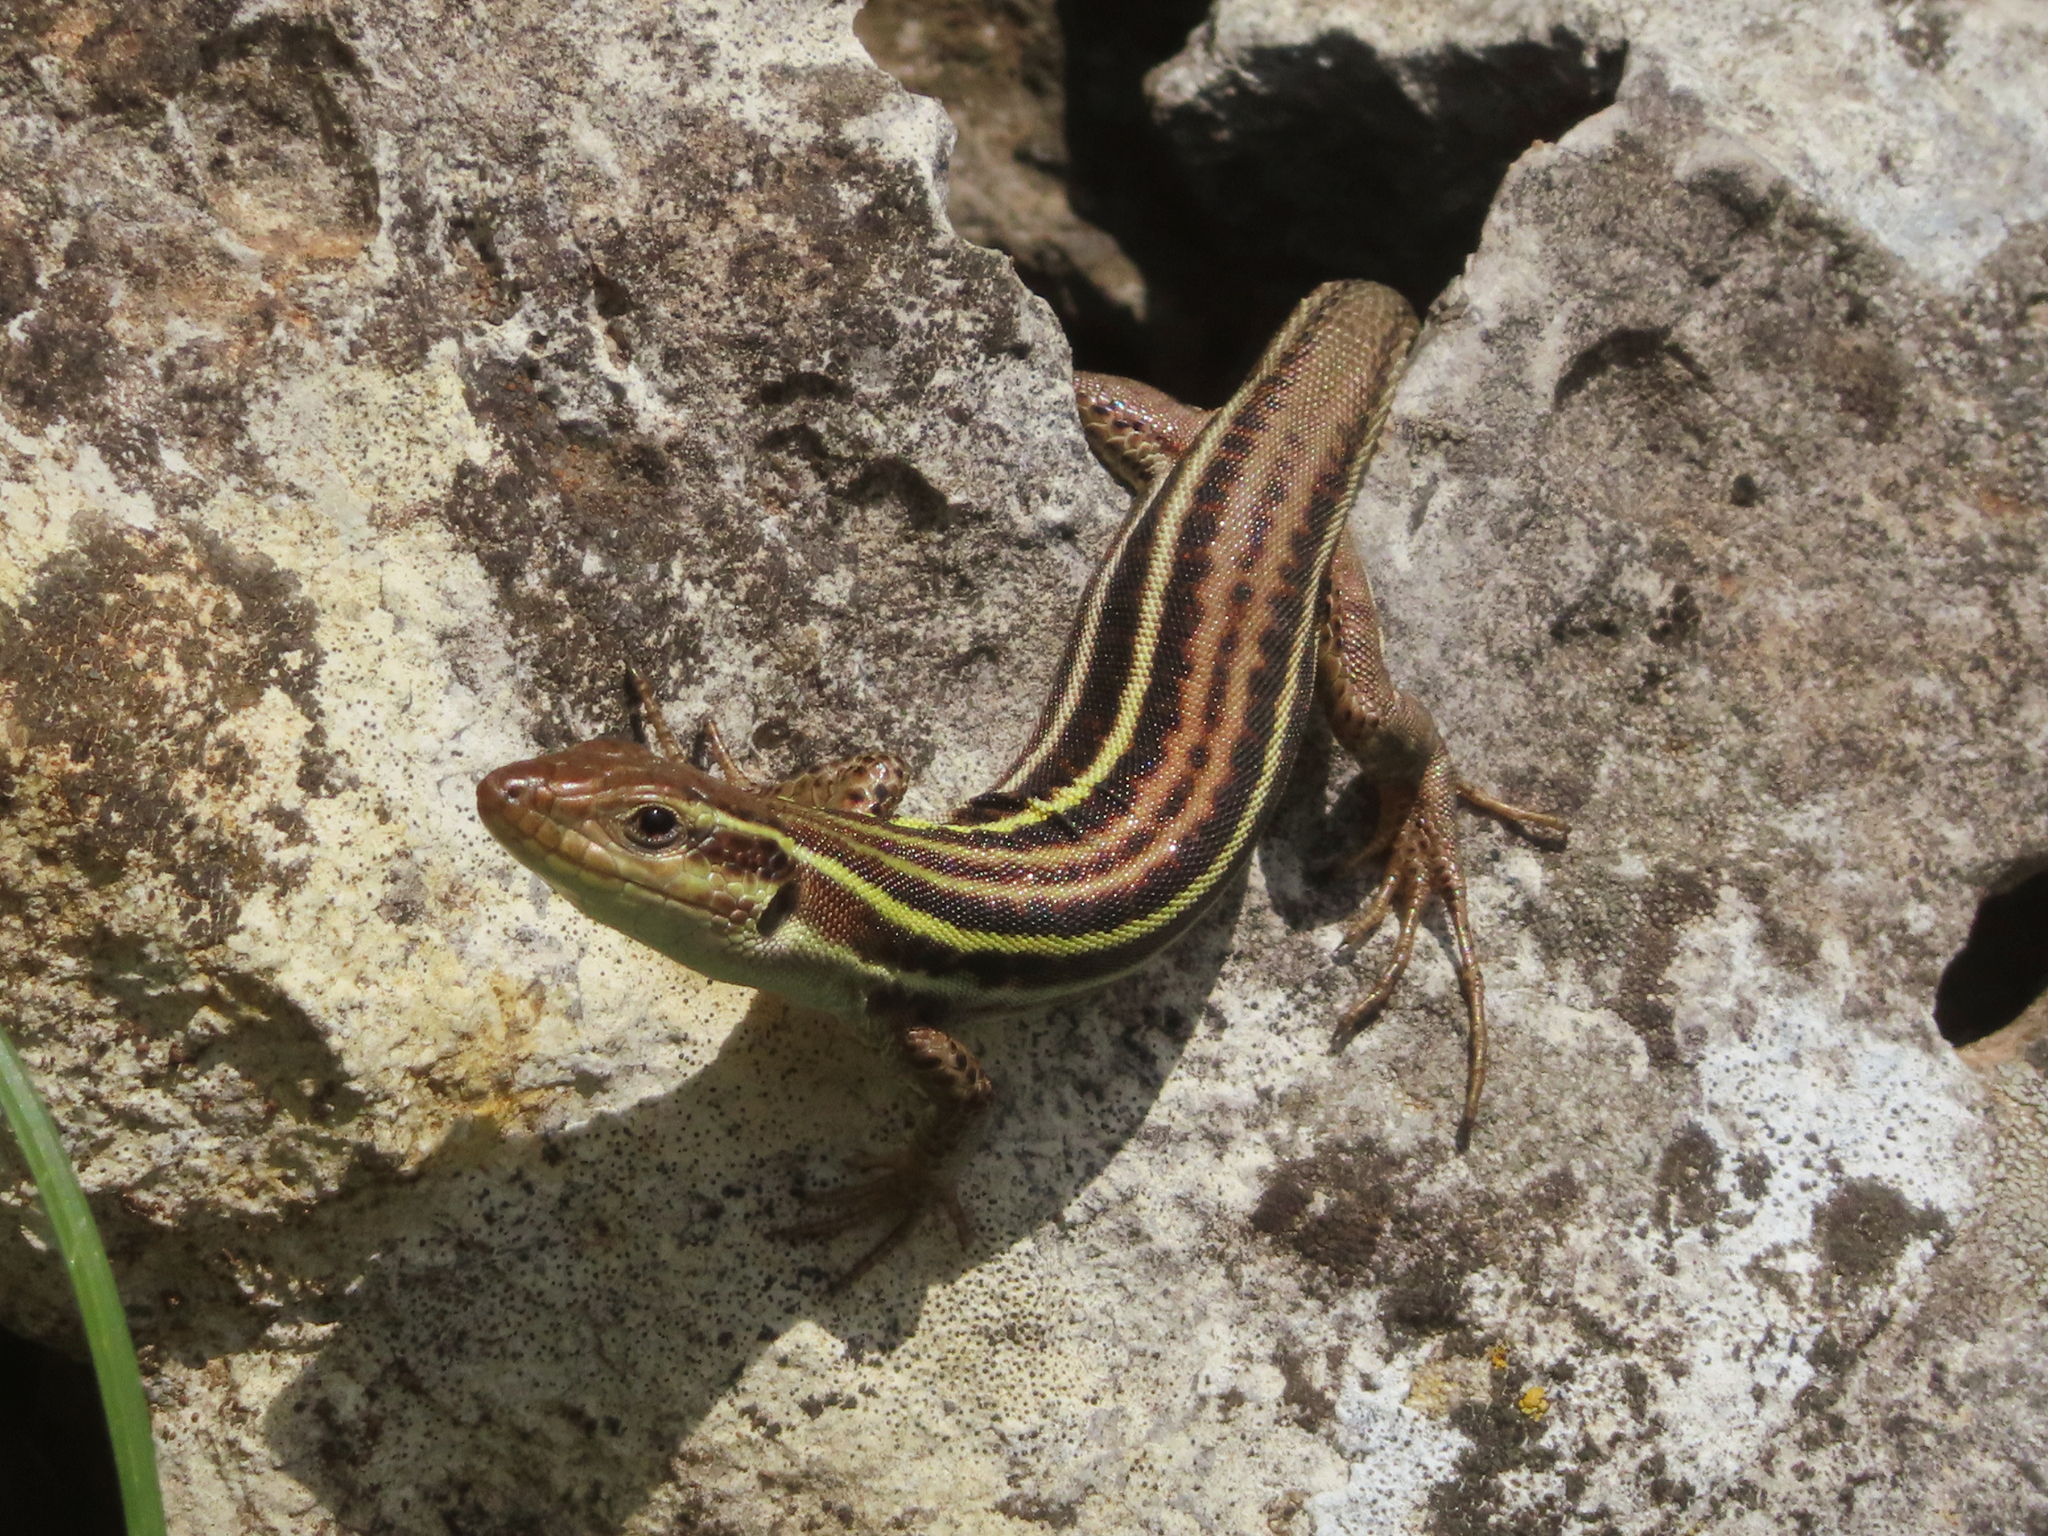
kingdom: Animalia
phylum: Chordata
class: Squamata
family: Lacertidae
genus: Podarcis
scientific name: Podarcis peloponnesiacus
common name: Peloponnese wall lizard
